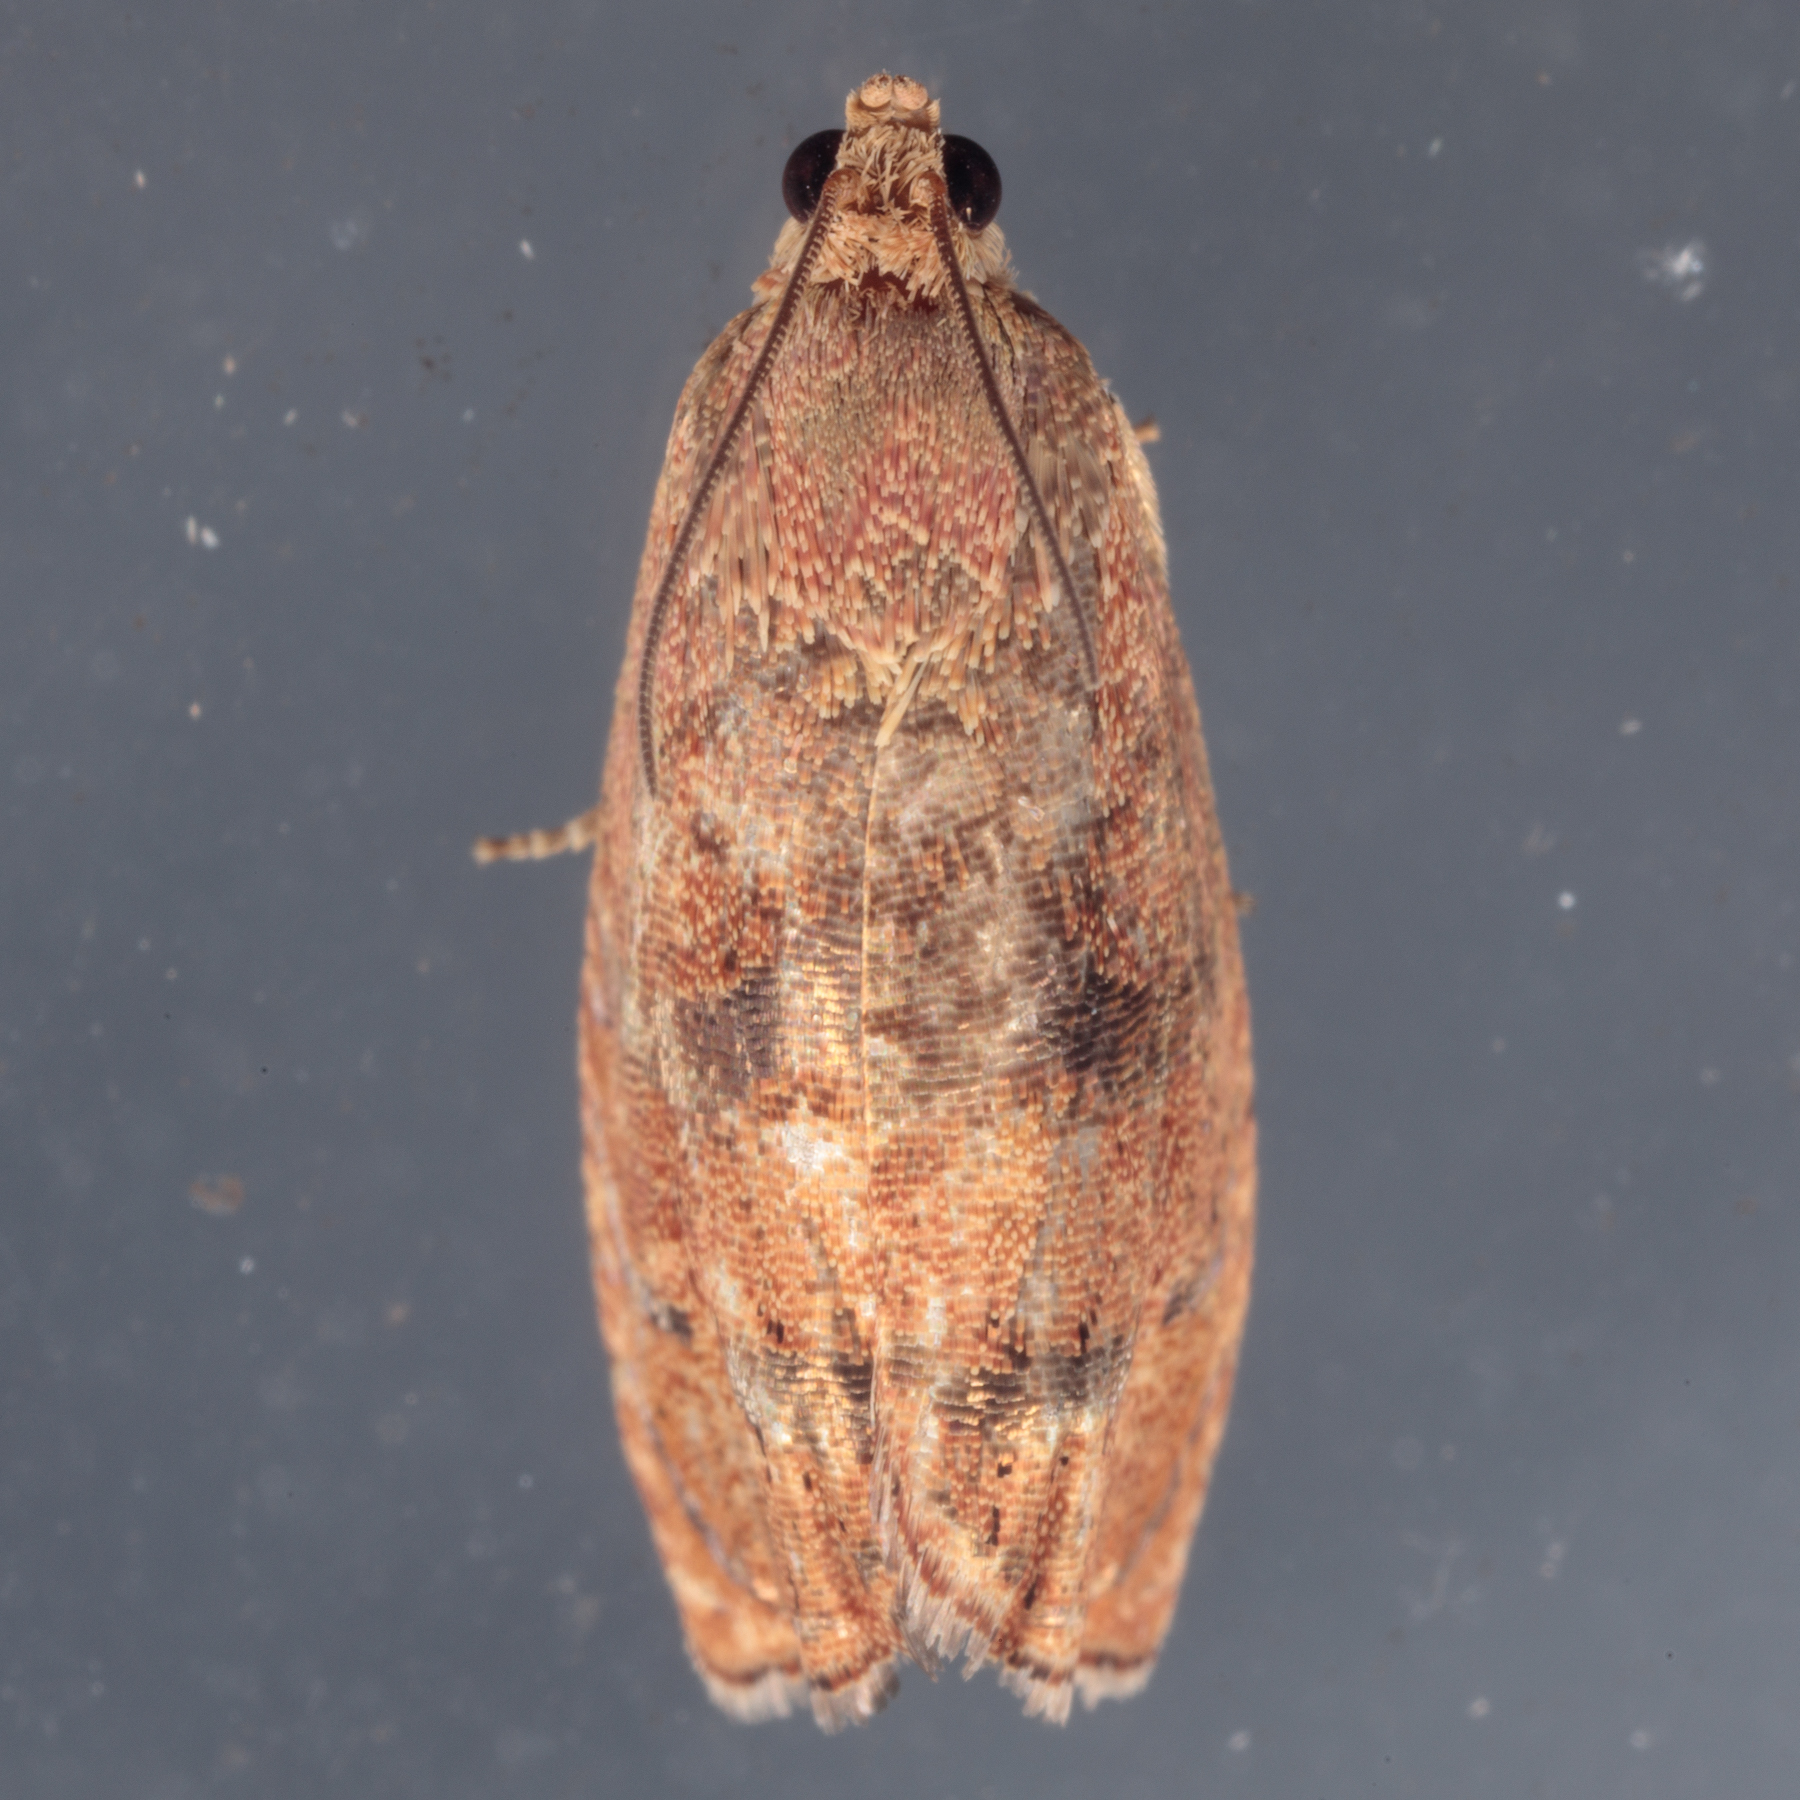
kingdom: Animalia
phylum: Arthropoda
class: Insecta
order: Lepidoptera
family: Tortricidae
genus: Cydia
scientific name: Cydia latiferreana
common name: Filbertworm moth
